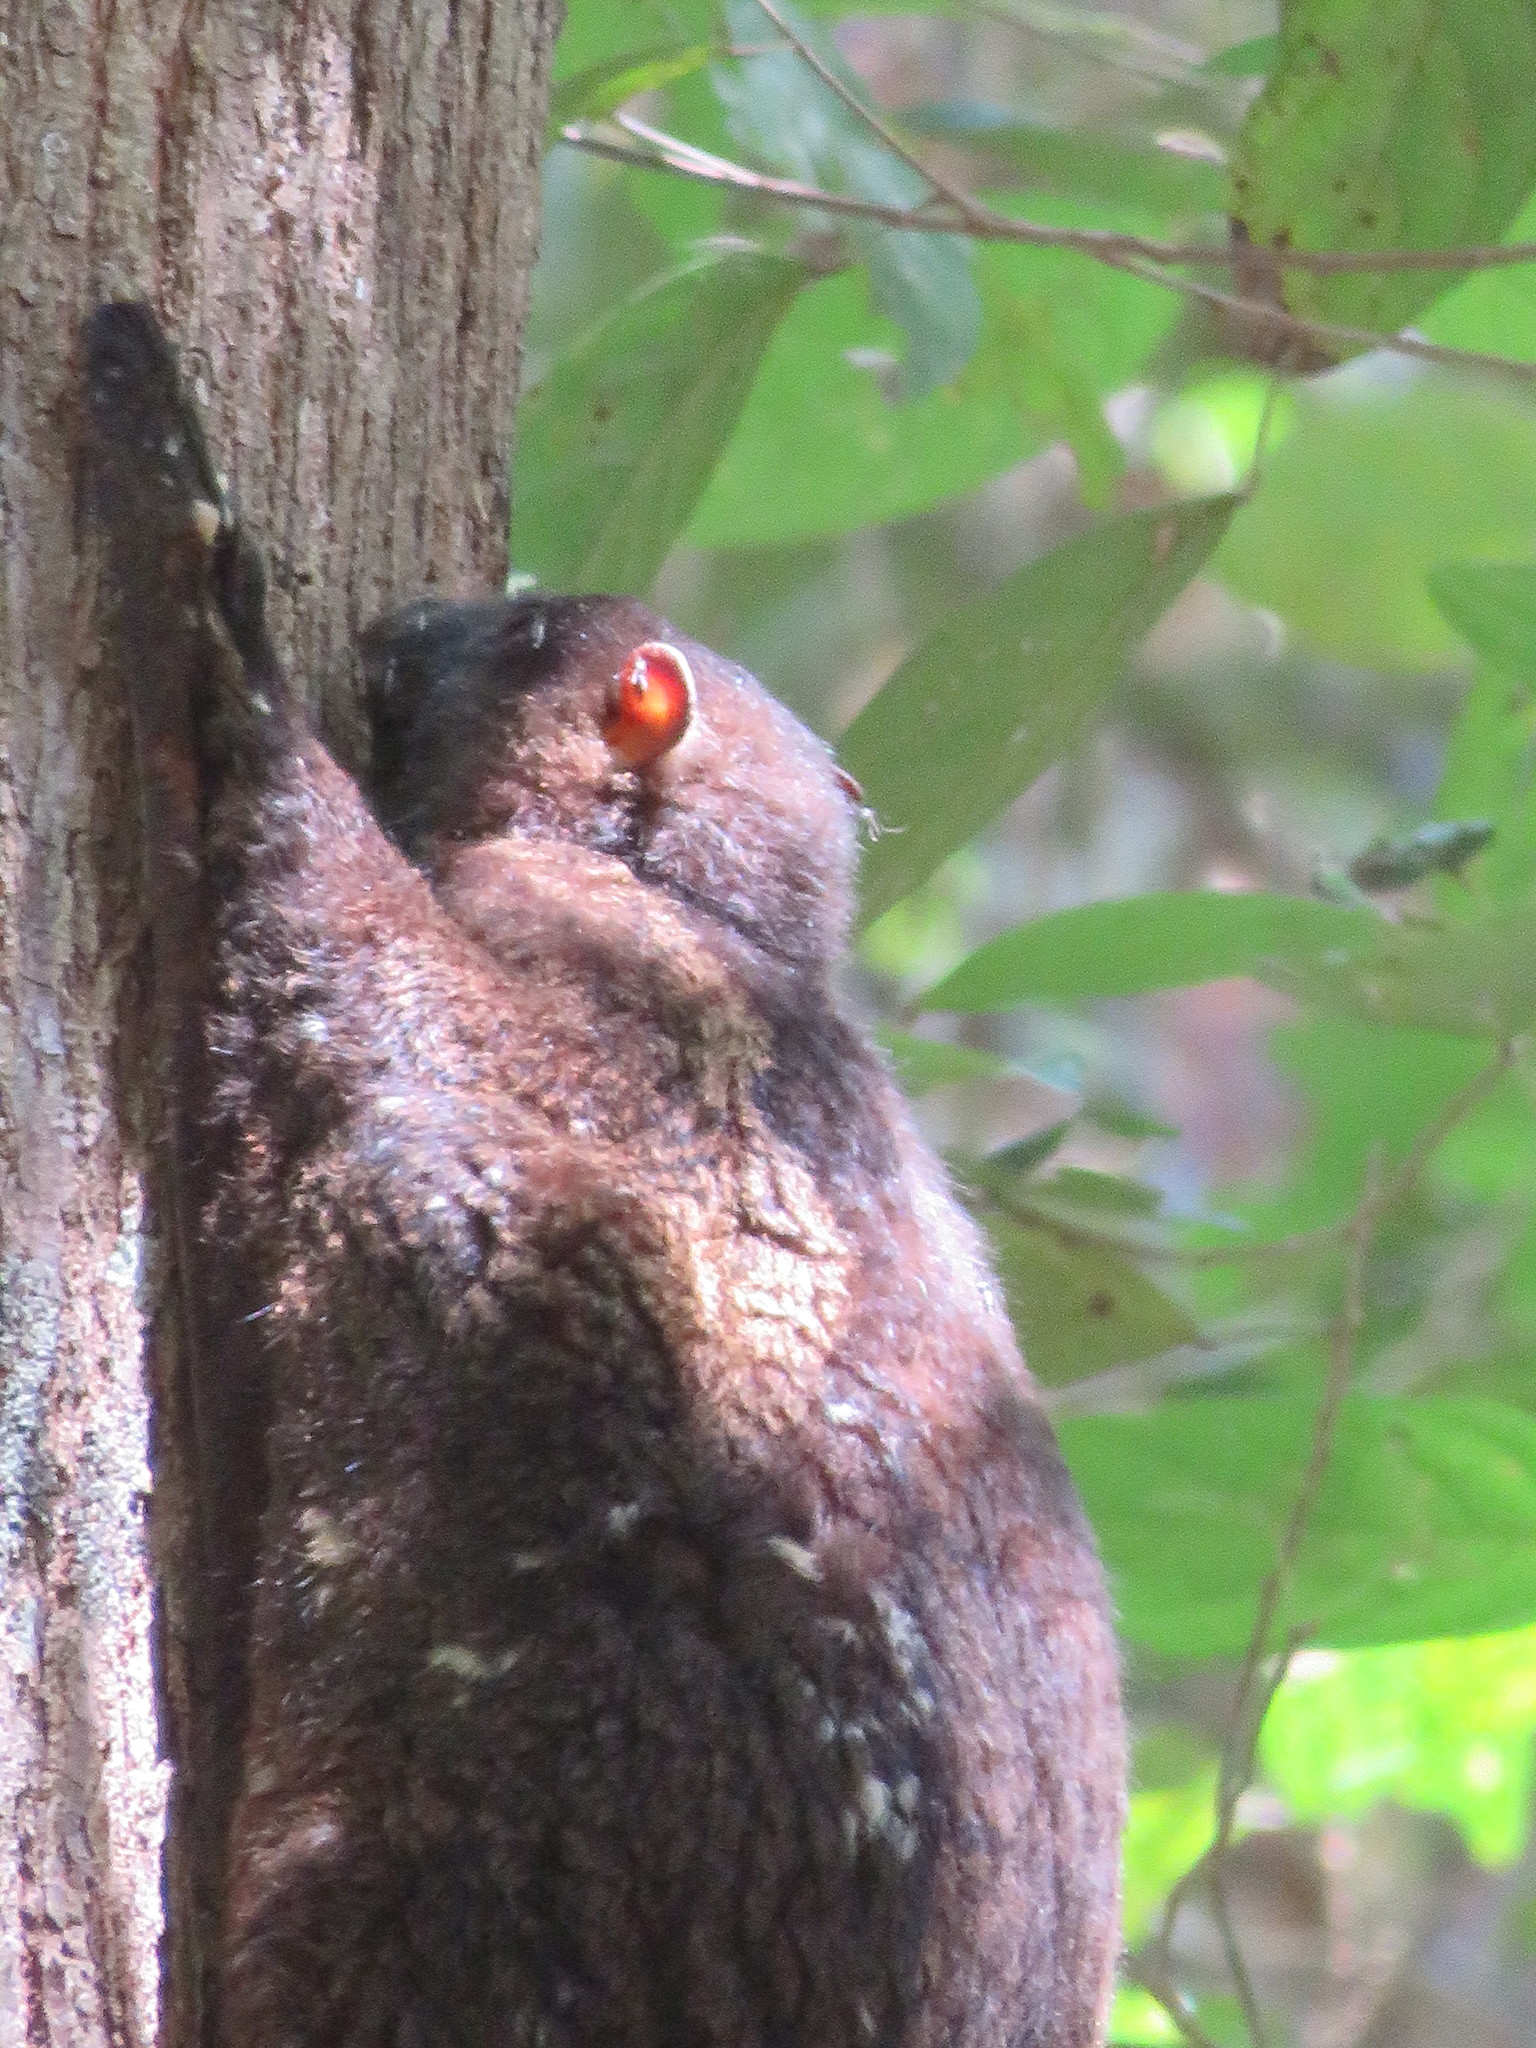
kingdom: Animalia
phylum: Chordata
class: Mammalia
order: Dermoptera
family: Cynocephalidae
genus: Cynocephalus
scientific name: Cynocephalus volans
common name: Philippine flying lemur
